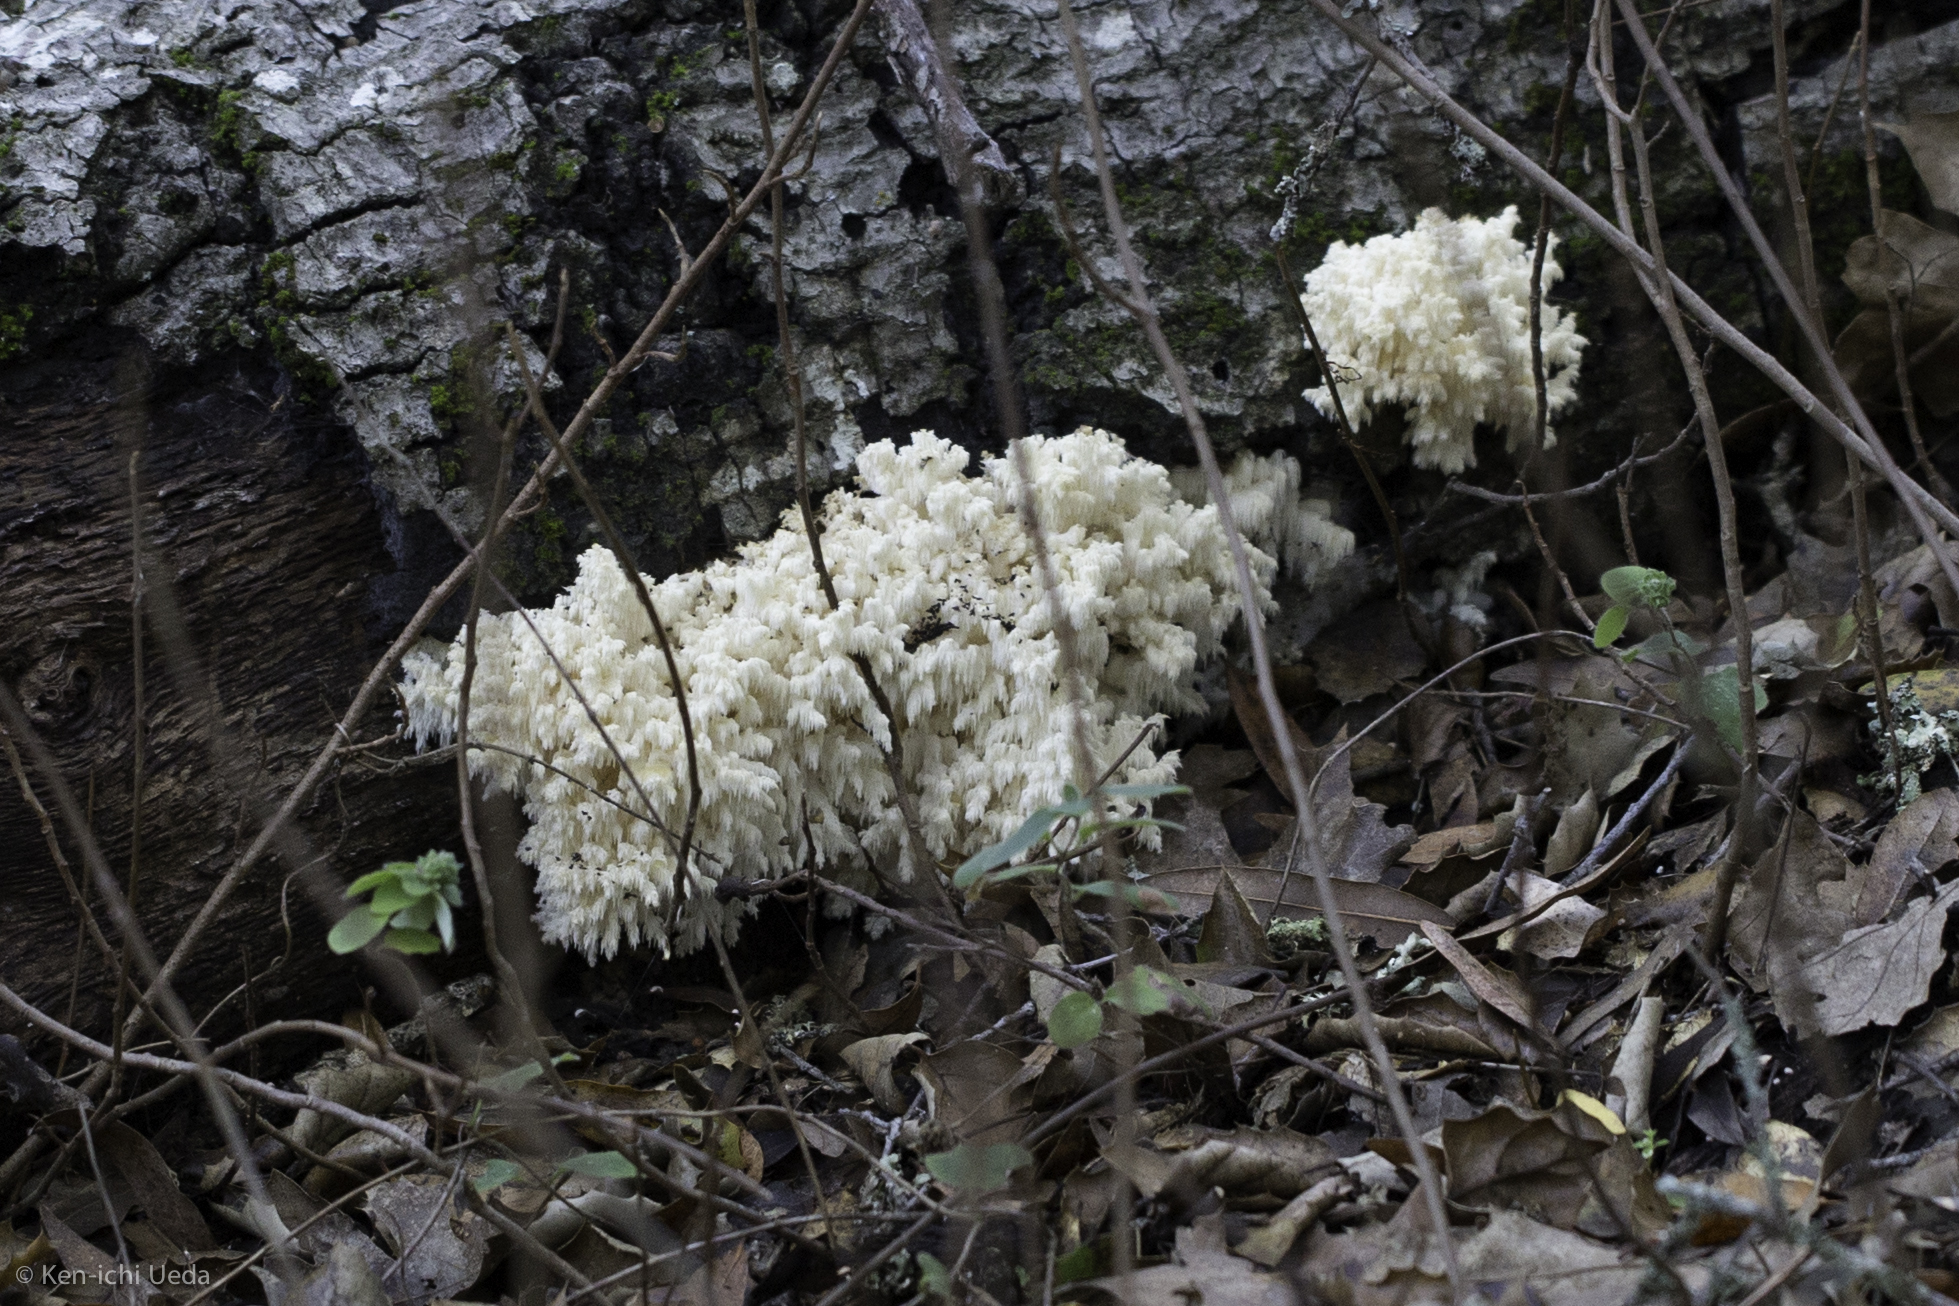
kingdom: Fungi
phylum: Basidiomycota
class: Agaricomycetes
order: Russulales
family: Hericiaceae
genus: Hericium
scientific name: Hericium coralloides
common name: Coral tooth
